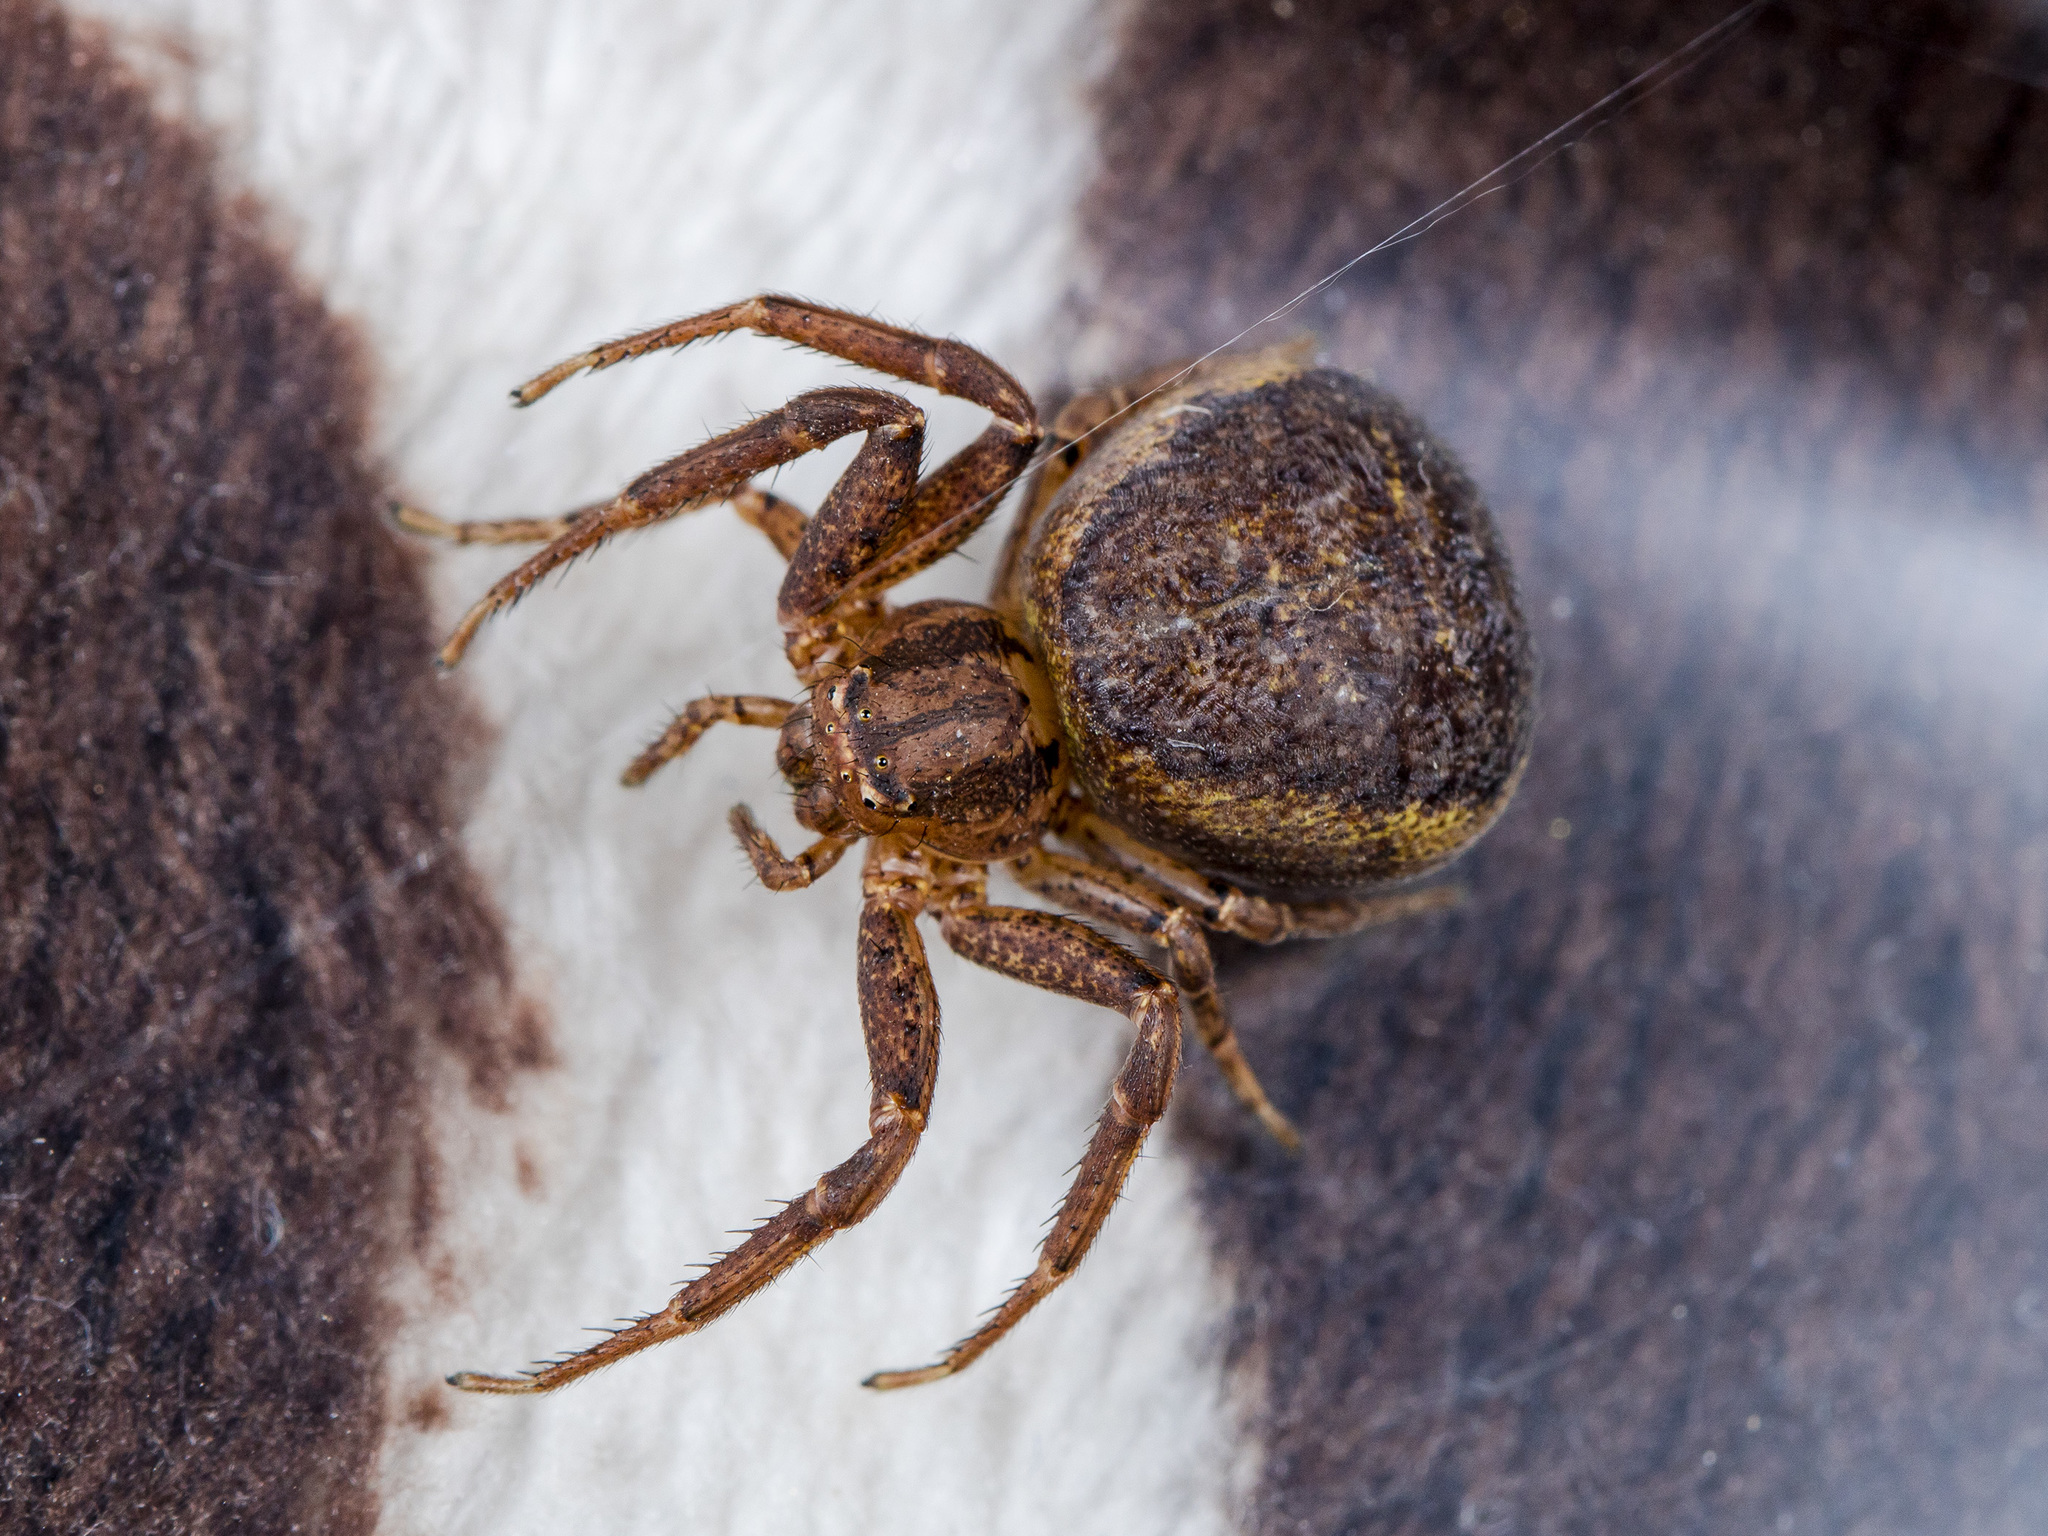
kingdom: Animalia
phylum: Arthropoda
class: Arachnida
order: Araneae
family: Thomisidae
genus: Xysticus
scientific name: Xysticus ephippiatus
